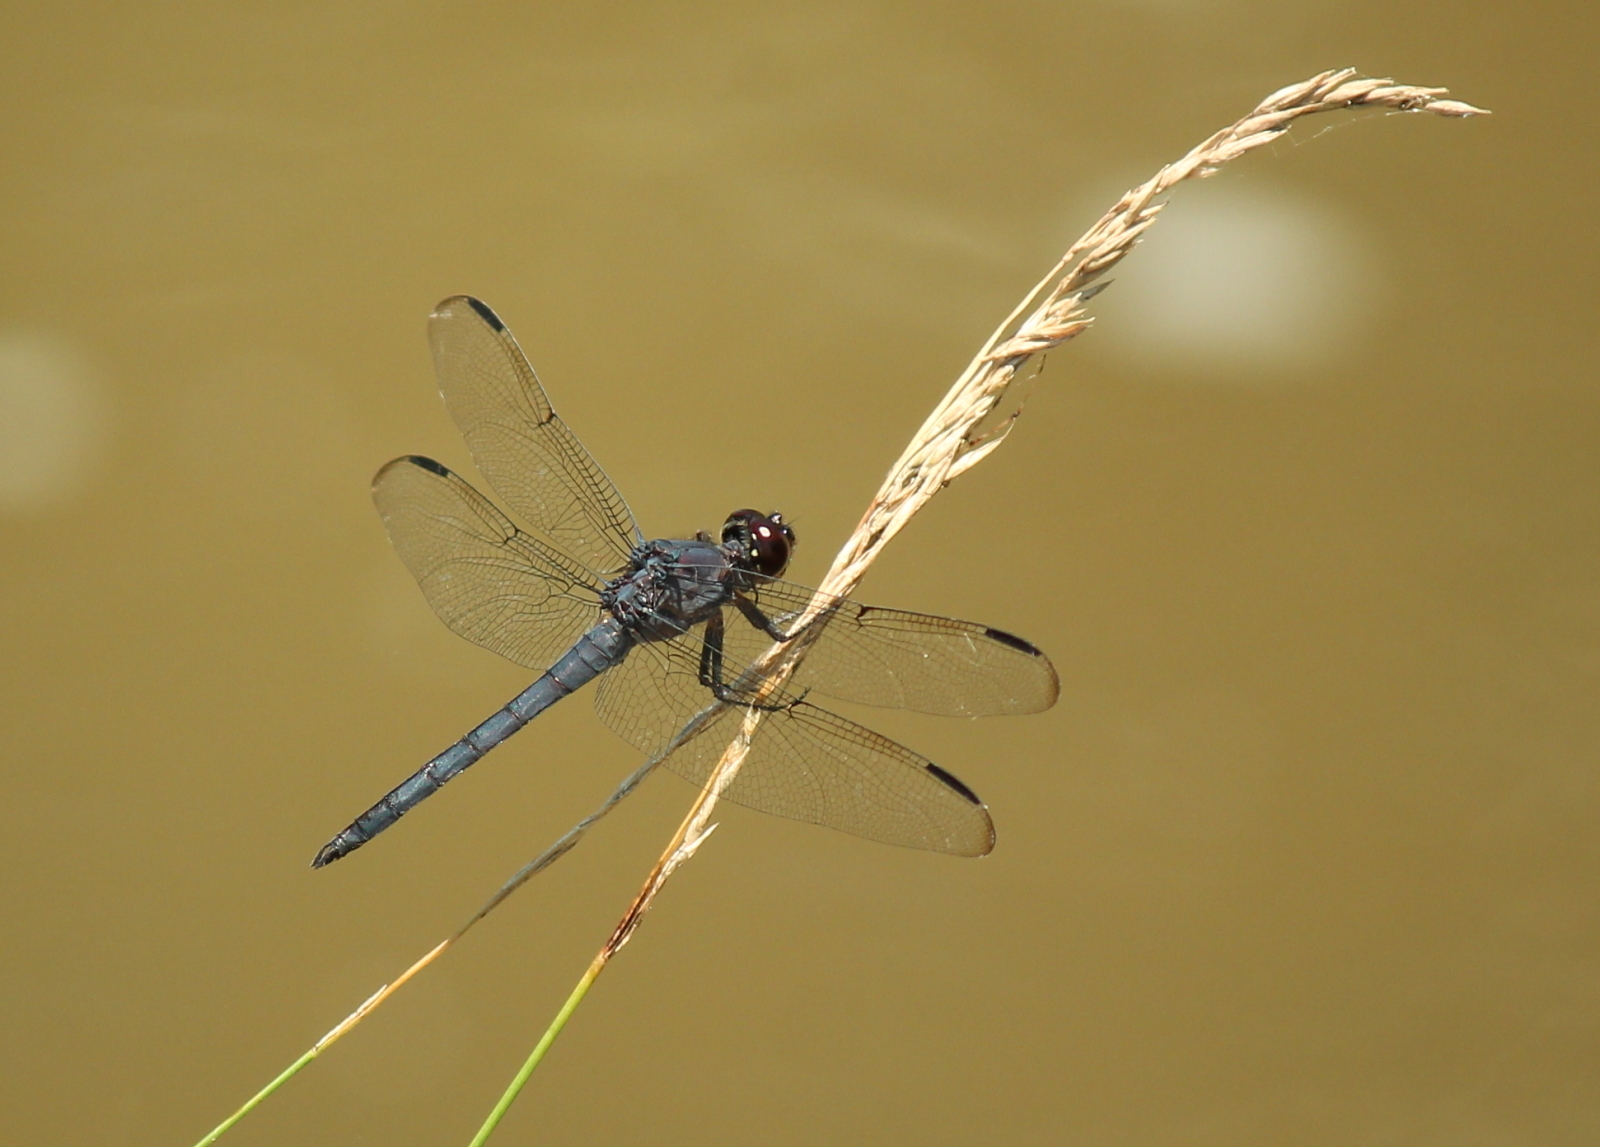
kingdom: Animalia
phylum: Arthropoda
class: Insecta
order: Odonata
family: Libellulidae
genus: Libellula
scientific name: Libellula incesta
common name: Slaty skimmer
